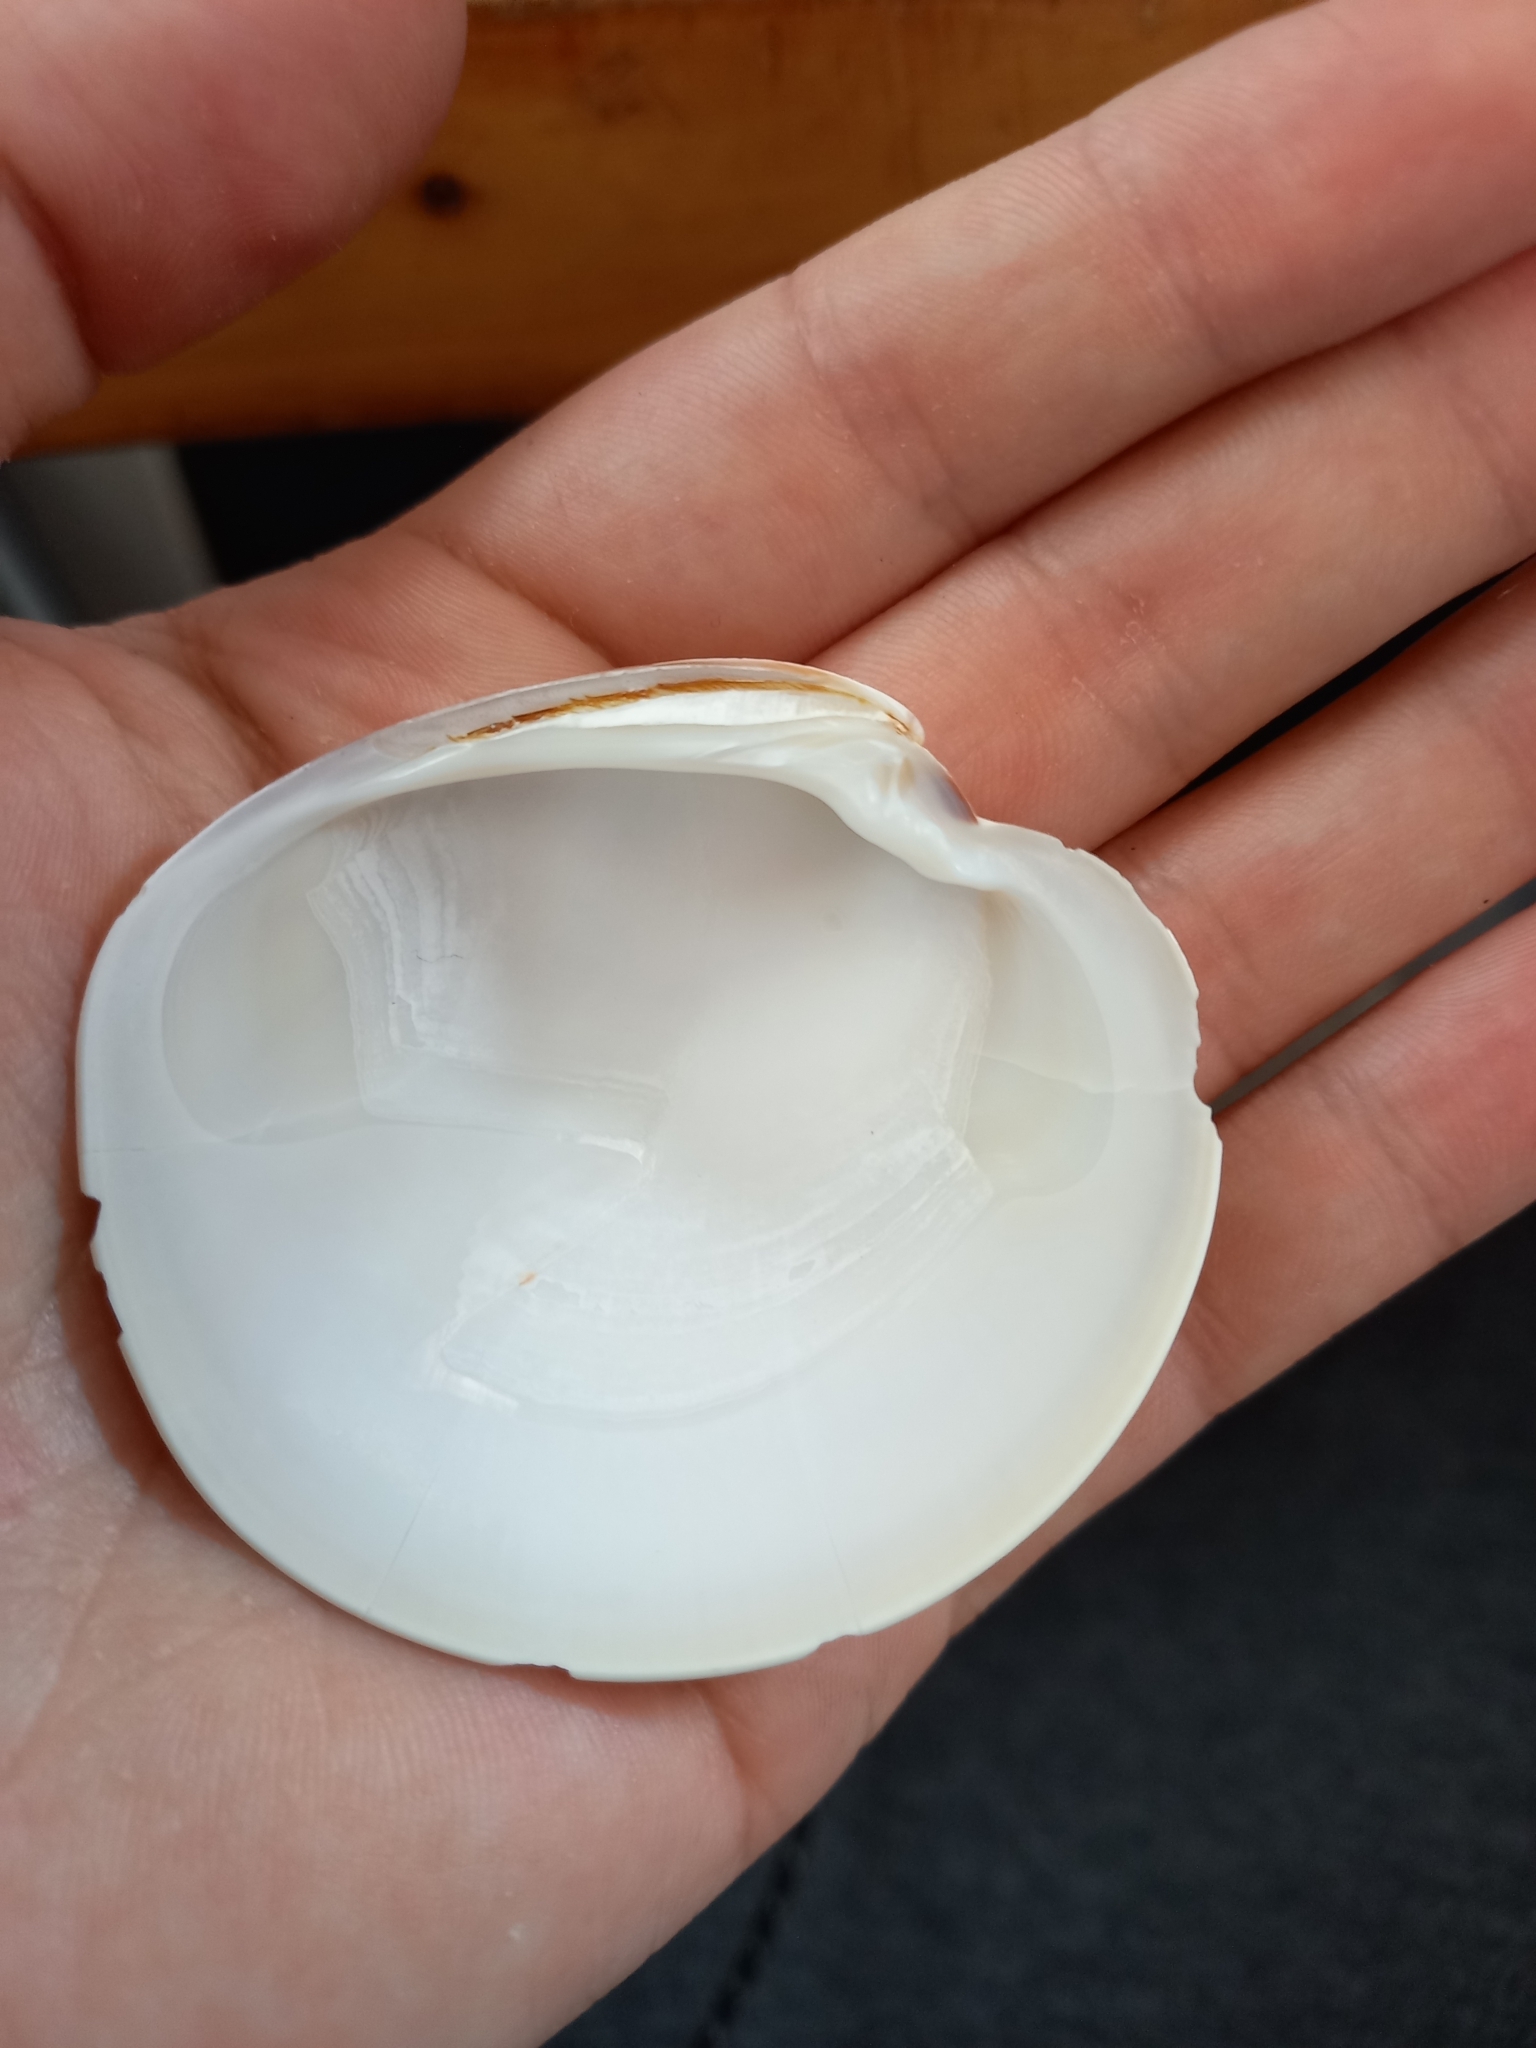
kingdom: Animalia
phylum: Mollusca
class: Bivalvia
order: Venerida
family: Veneridae
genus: Dosinia
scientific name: Dosinia subrosea
